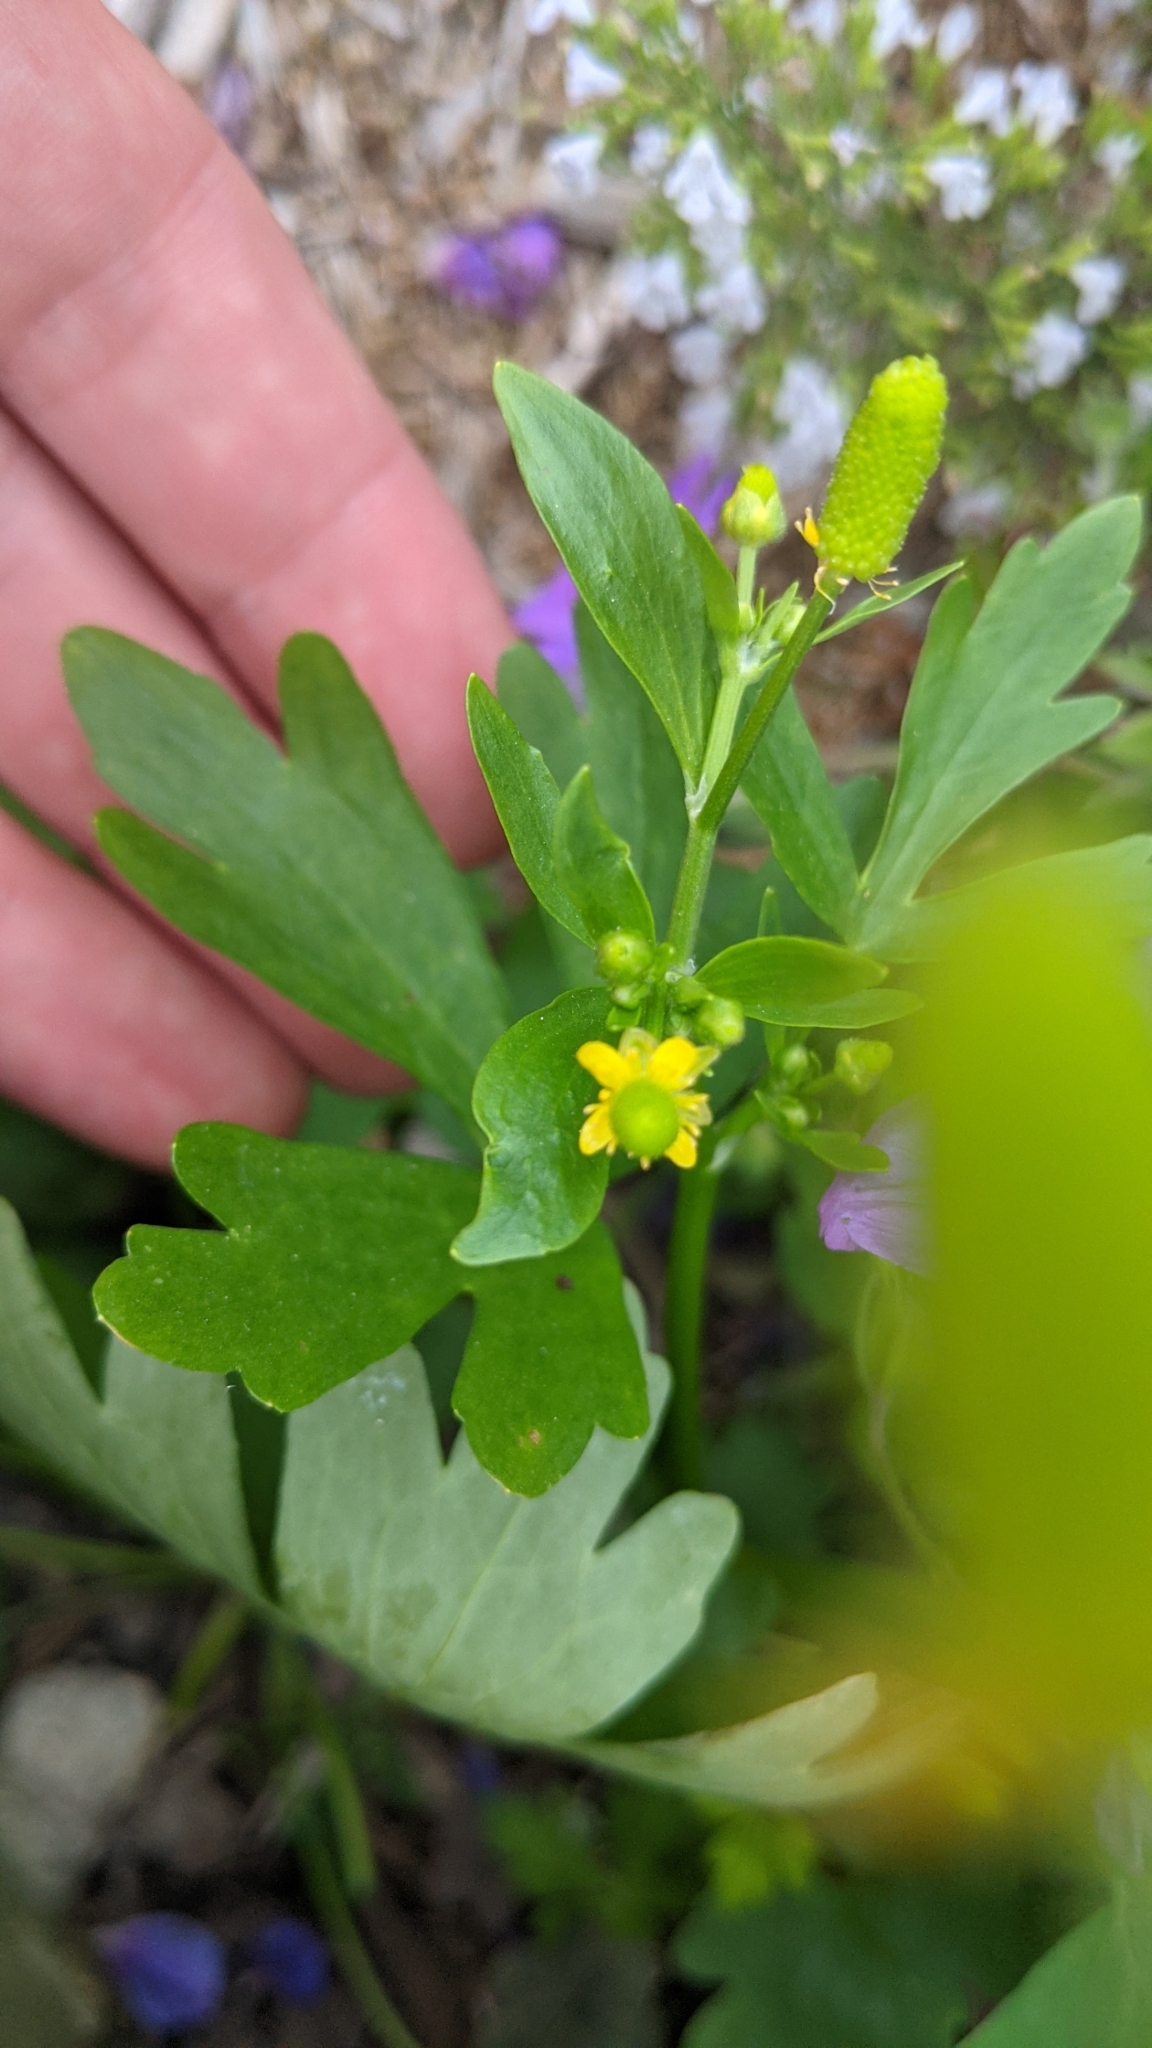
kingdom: Plantae
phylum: Tracheophyta
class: Magnoliopsida
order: Ranunculales
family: Ranunculaceae
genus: Ranunculus
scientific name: Ranunculus sceleratus
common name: Celery-leaved buttercup
